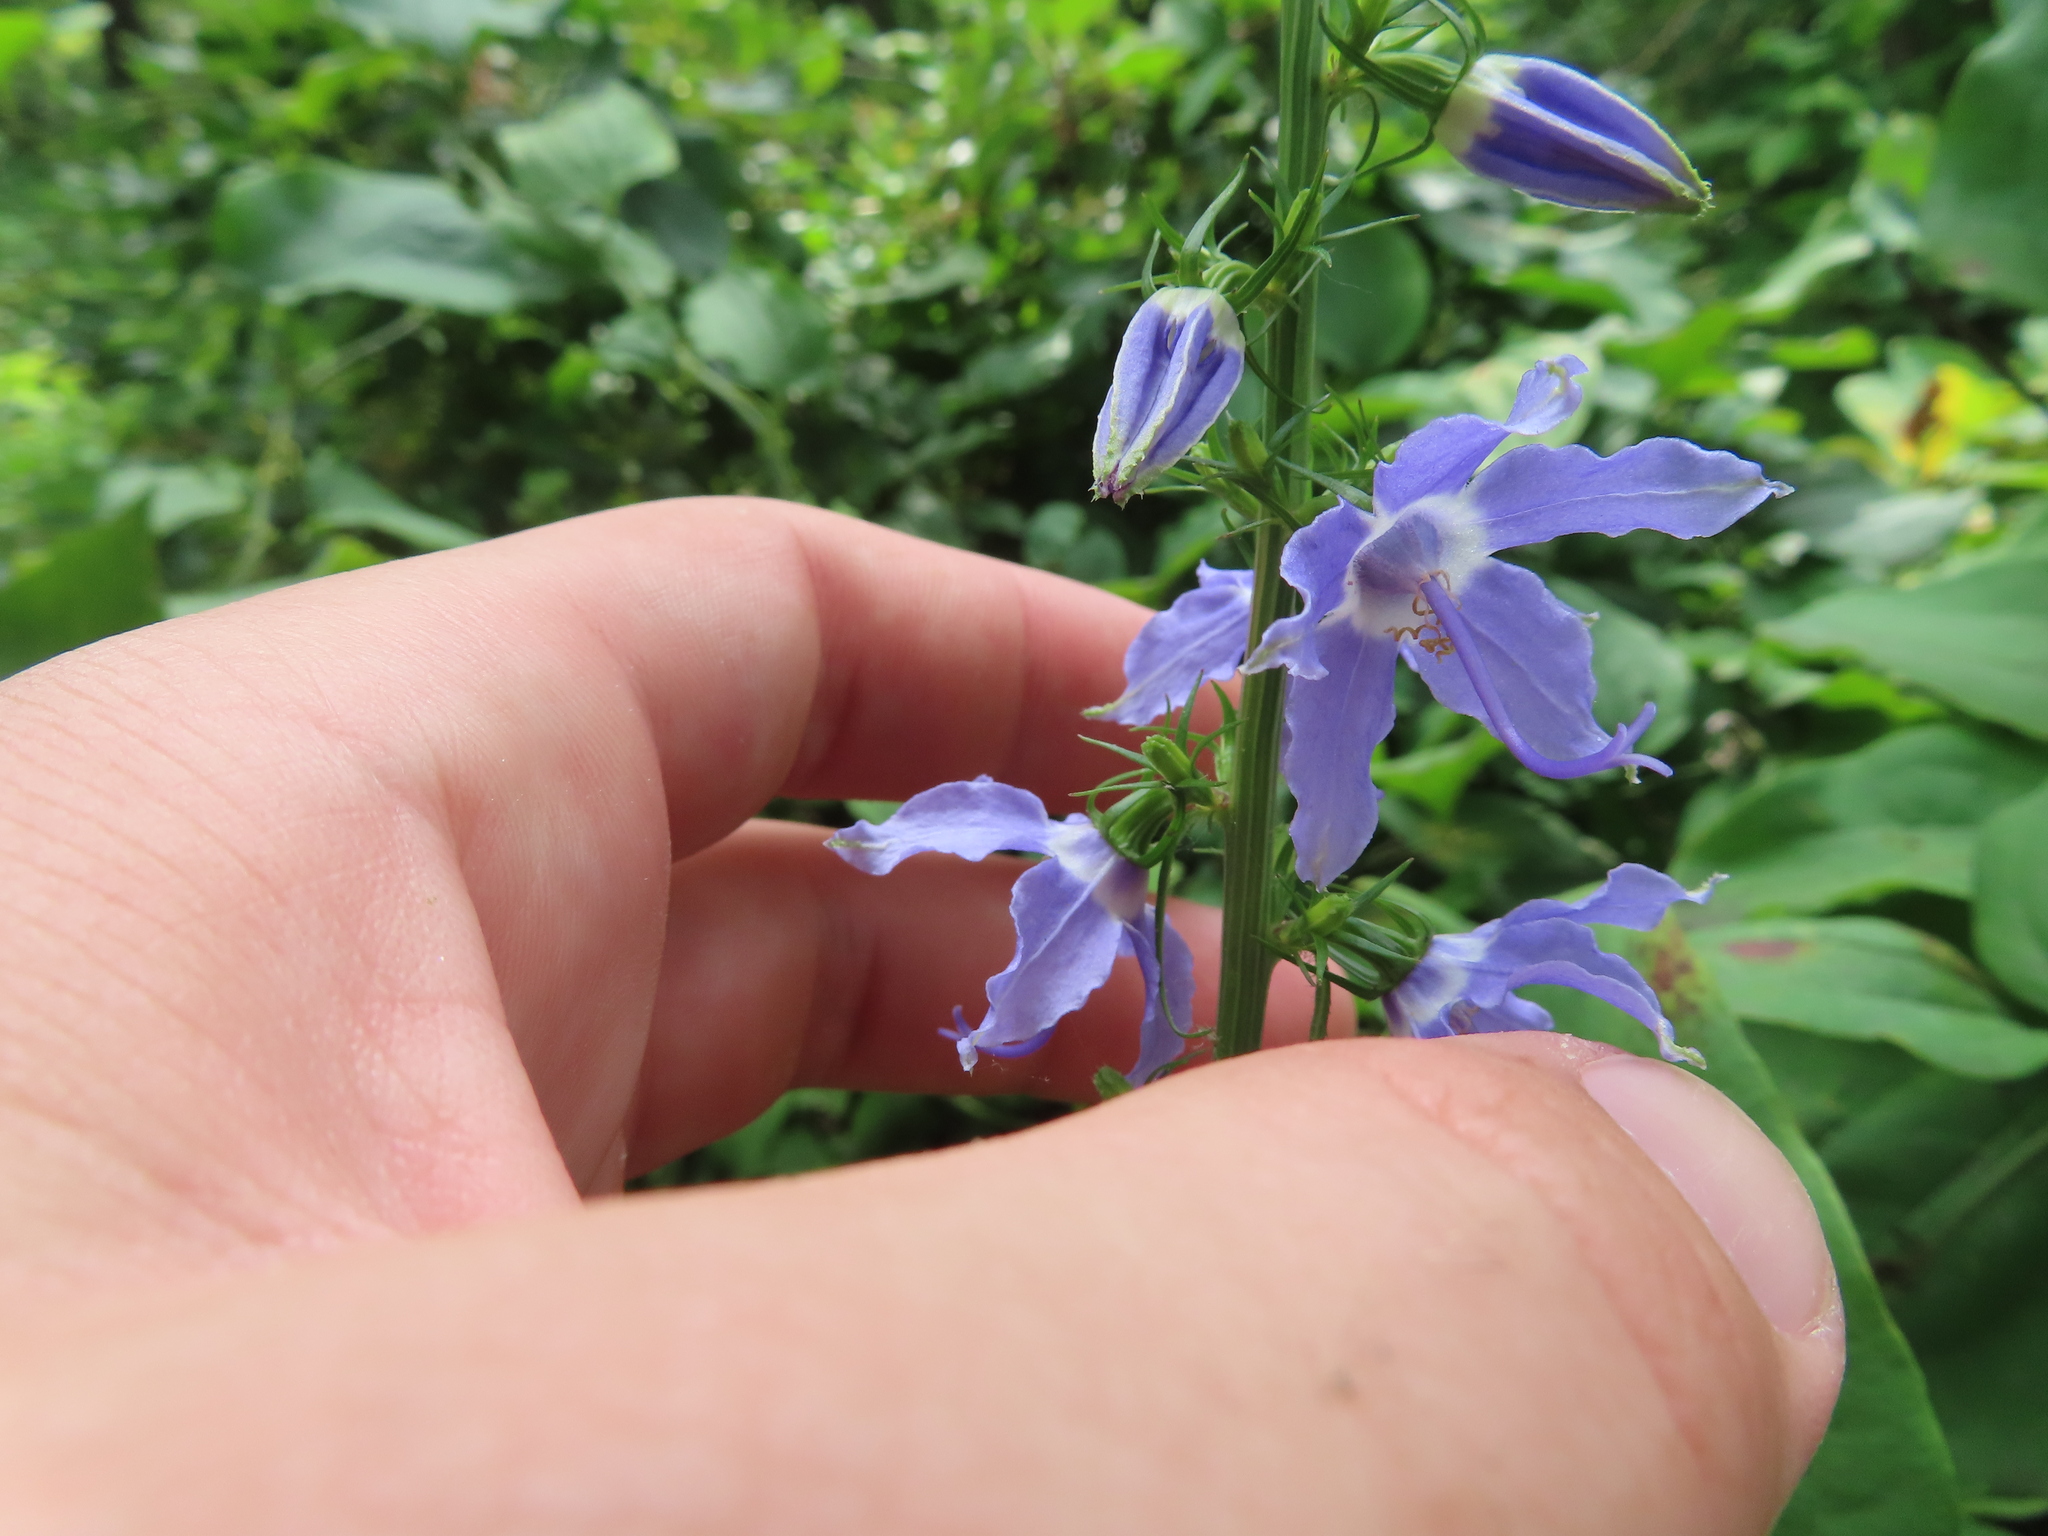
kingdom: Plantae
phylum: Tracheophyta
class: Magnoliopsida
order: Asterales
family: Campanulaceae
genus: Campanulastrum
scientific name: Campanulastrum americanum
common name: American bellflower
